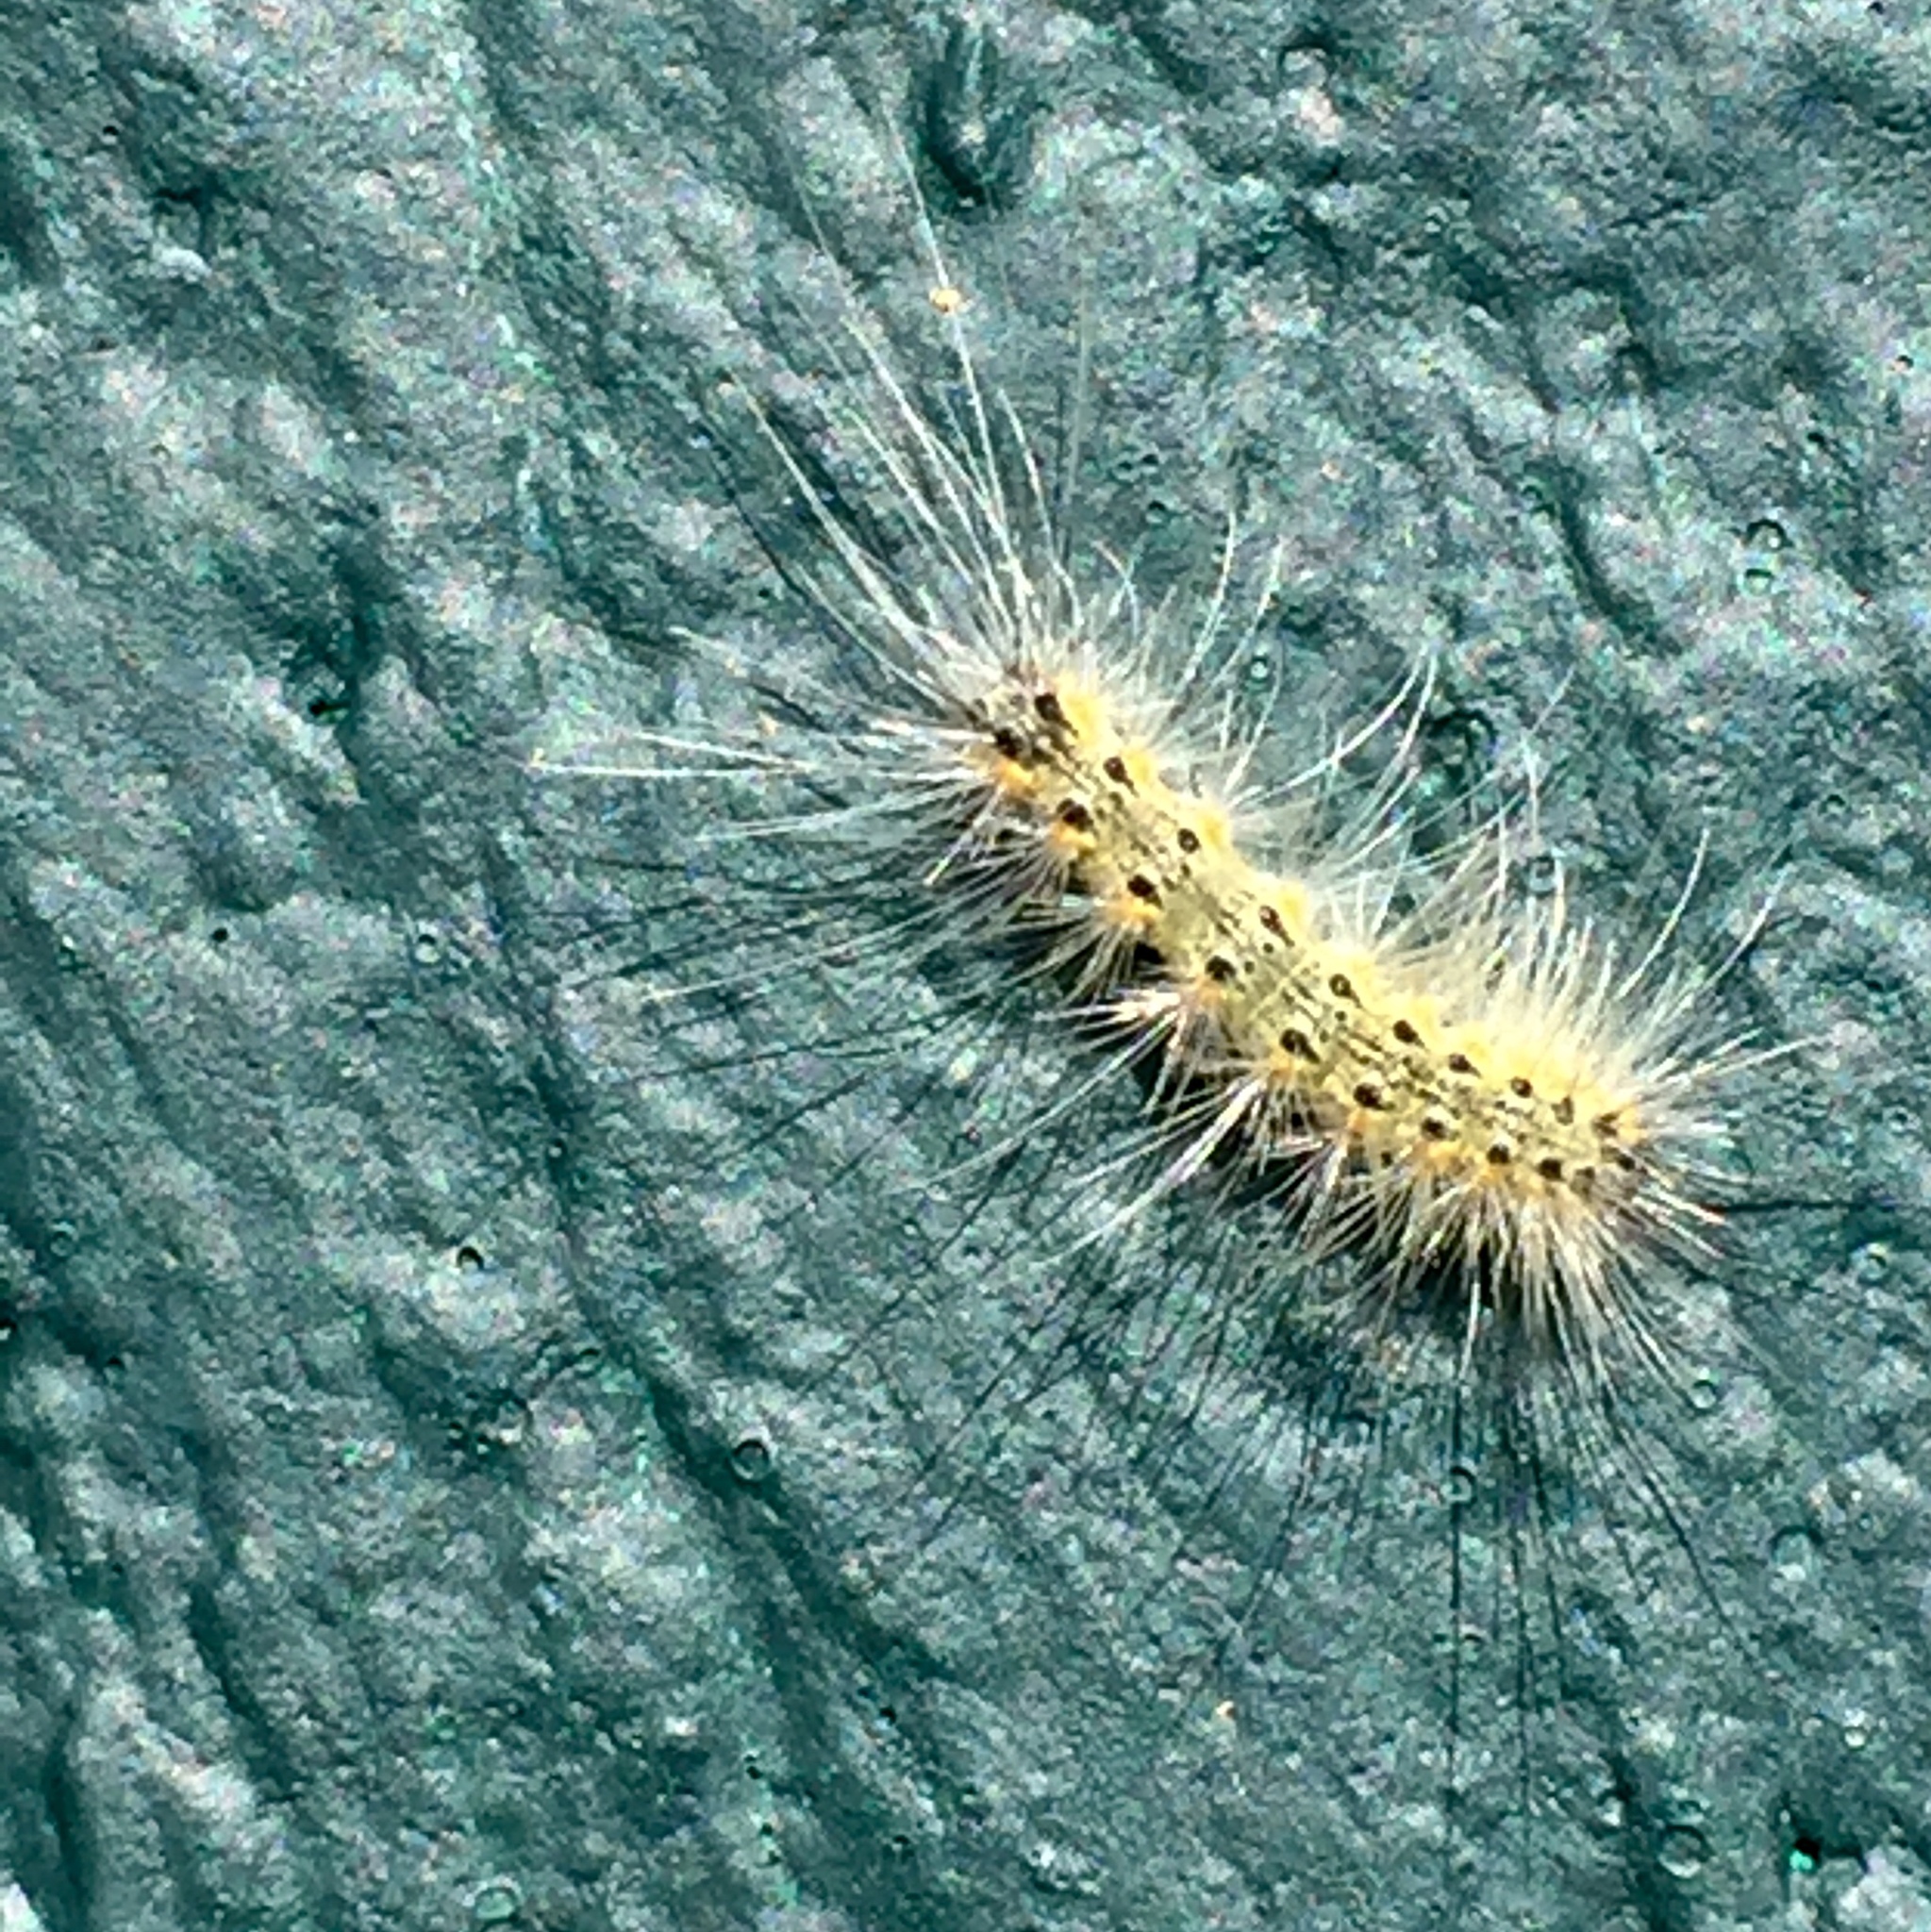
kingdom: Animalia
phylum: Arthropoda
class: Insecta
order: Lepidoptera
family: Erebidae
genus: Hyphantria
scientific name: Hyphantria cunea
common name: American white moth
